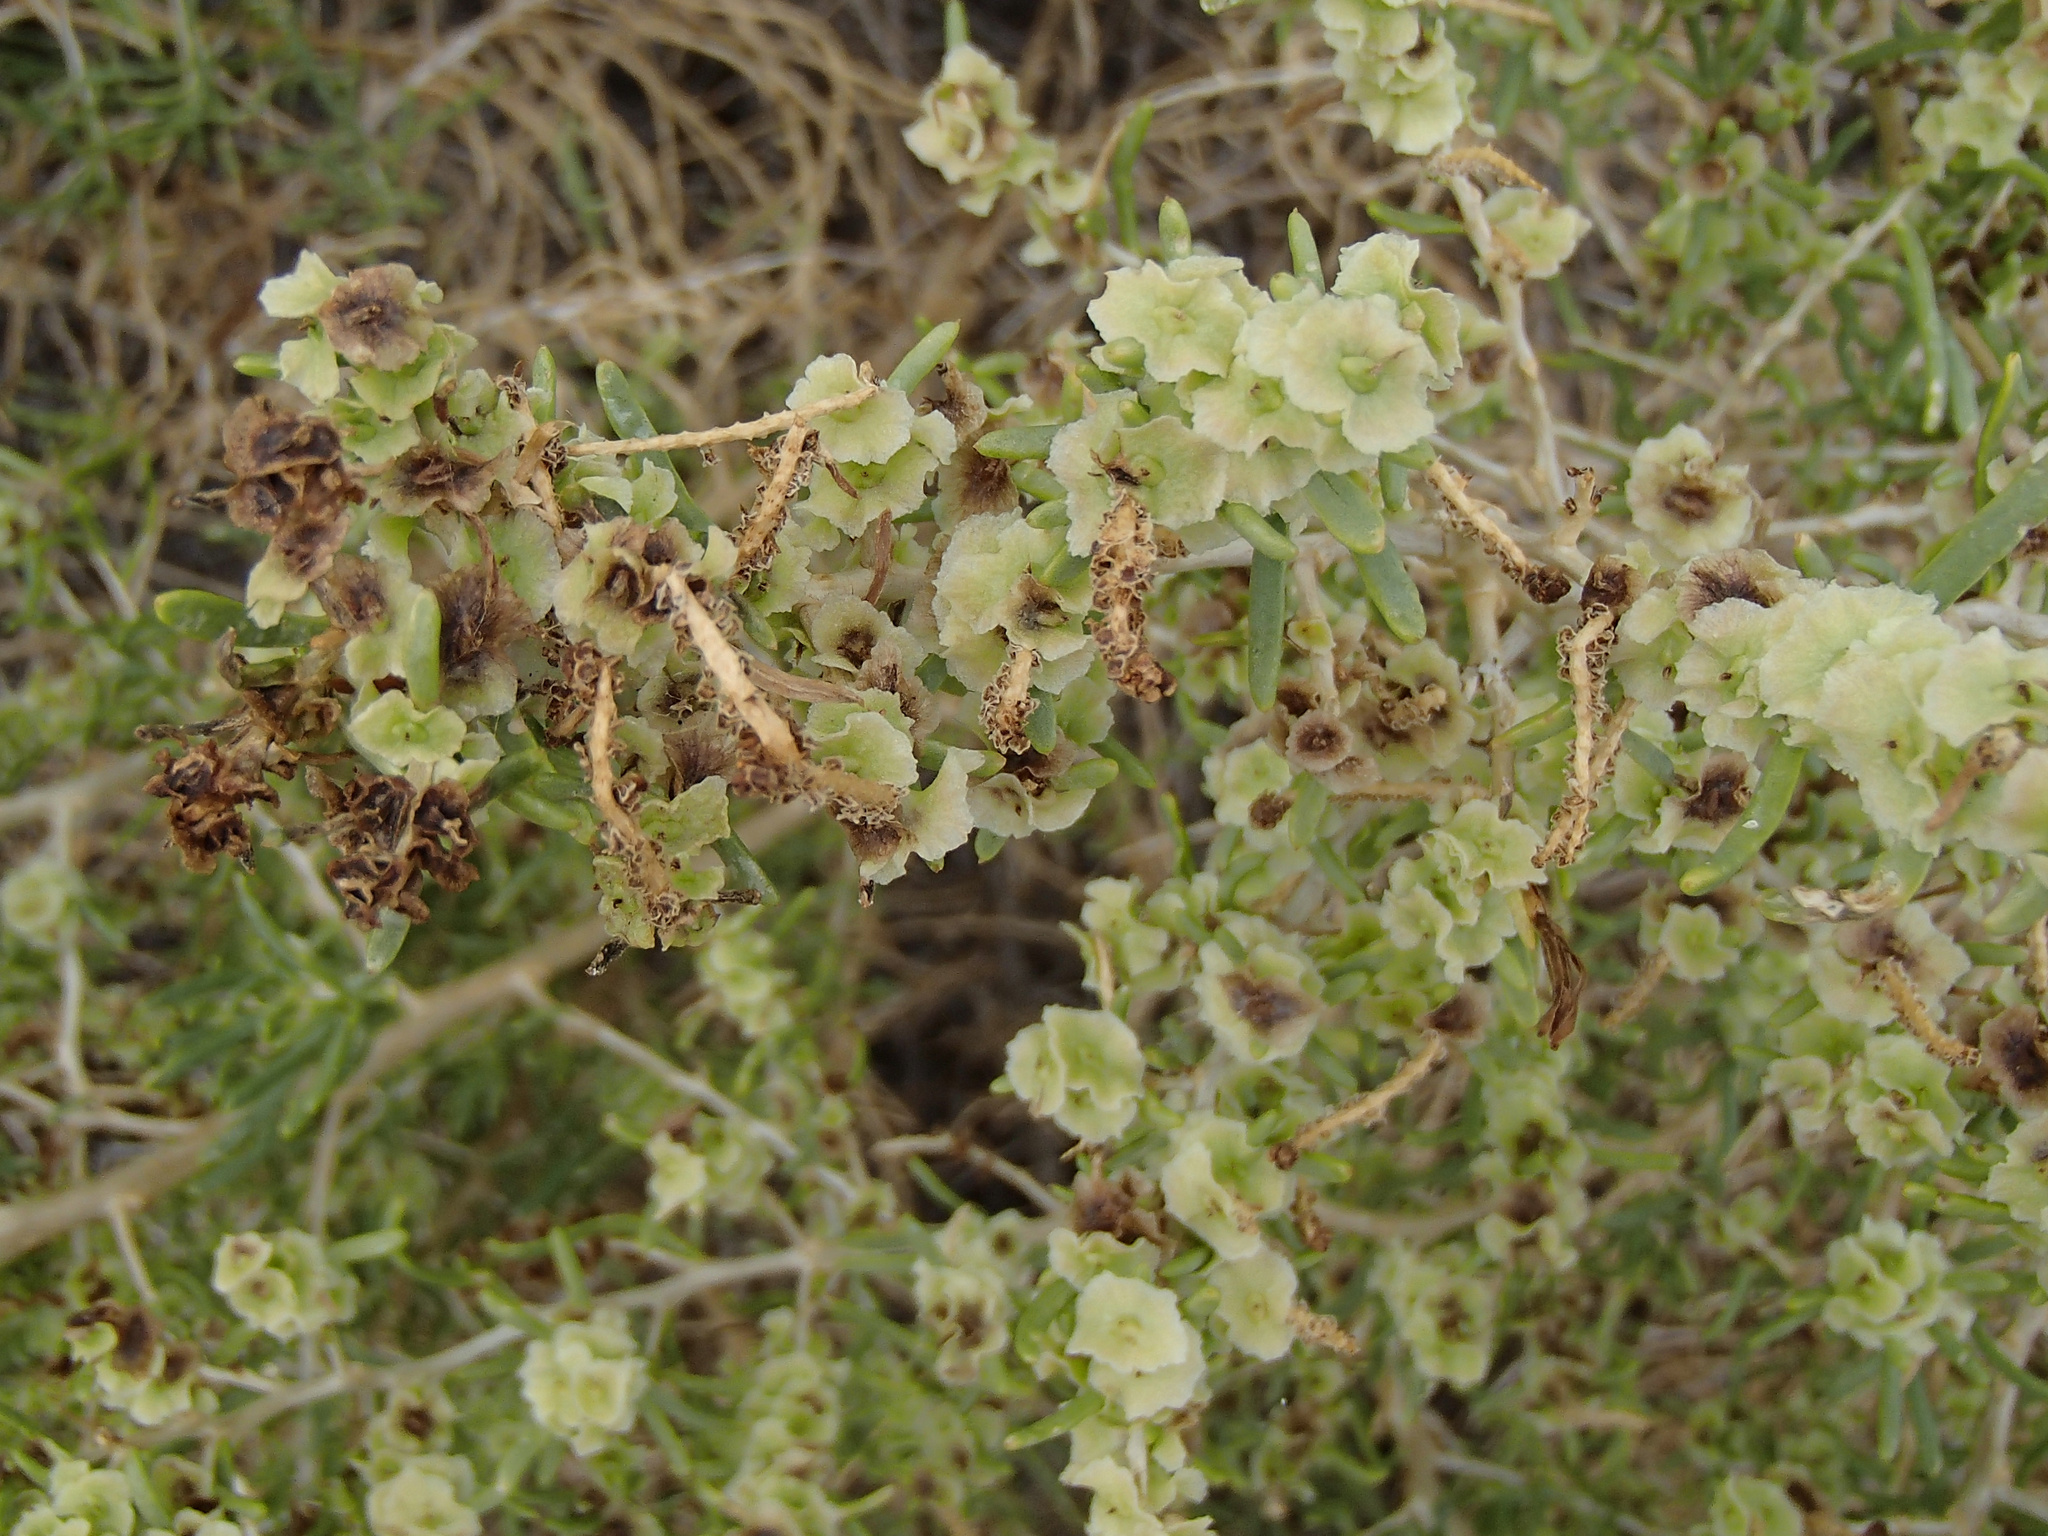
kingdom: Plantae
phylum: Tracheophyta
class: Magnoliopsida
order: Caryophyllales
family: Sarcobataceae
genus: Sarcobatus
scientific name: Sarcobatus vermiculatus
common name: Greasewood
